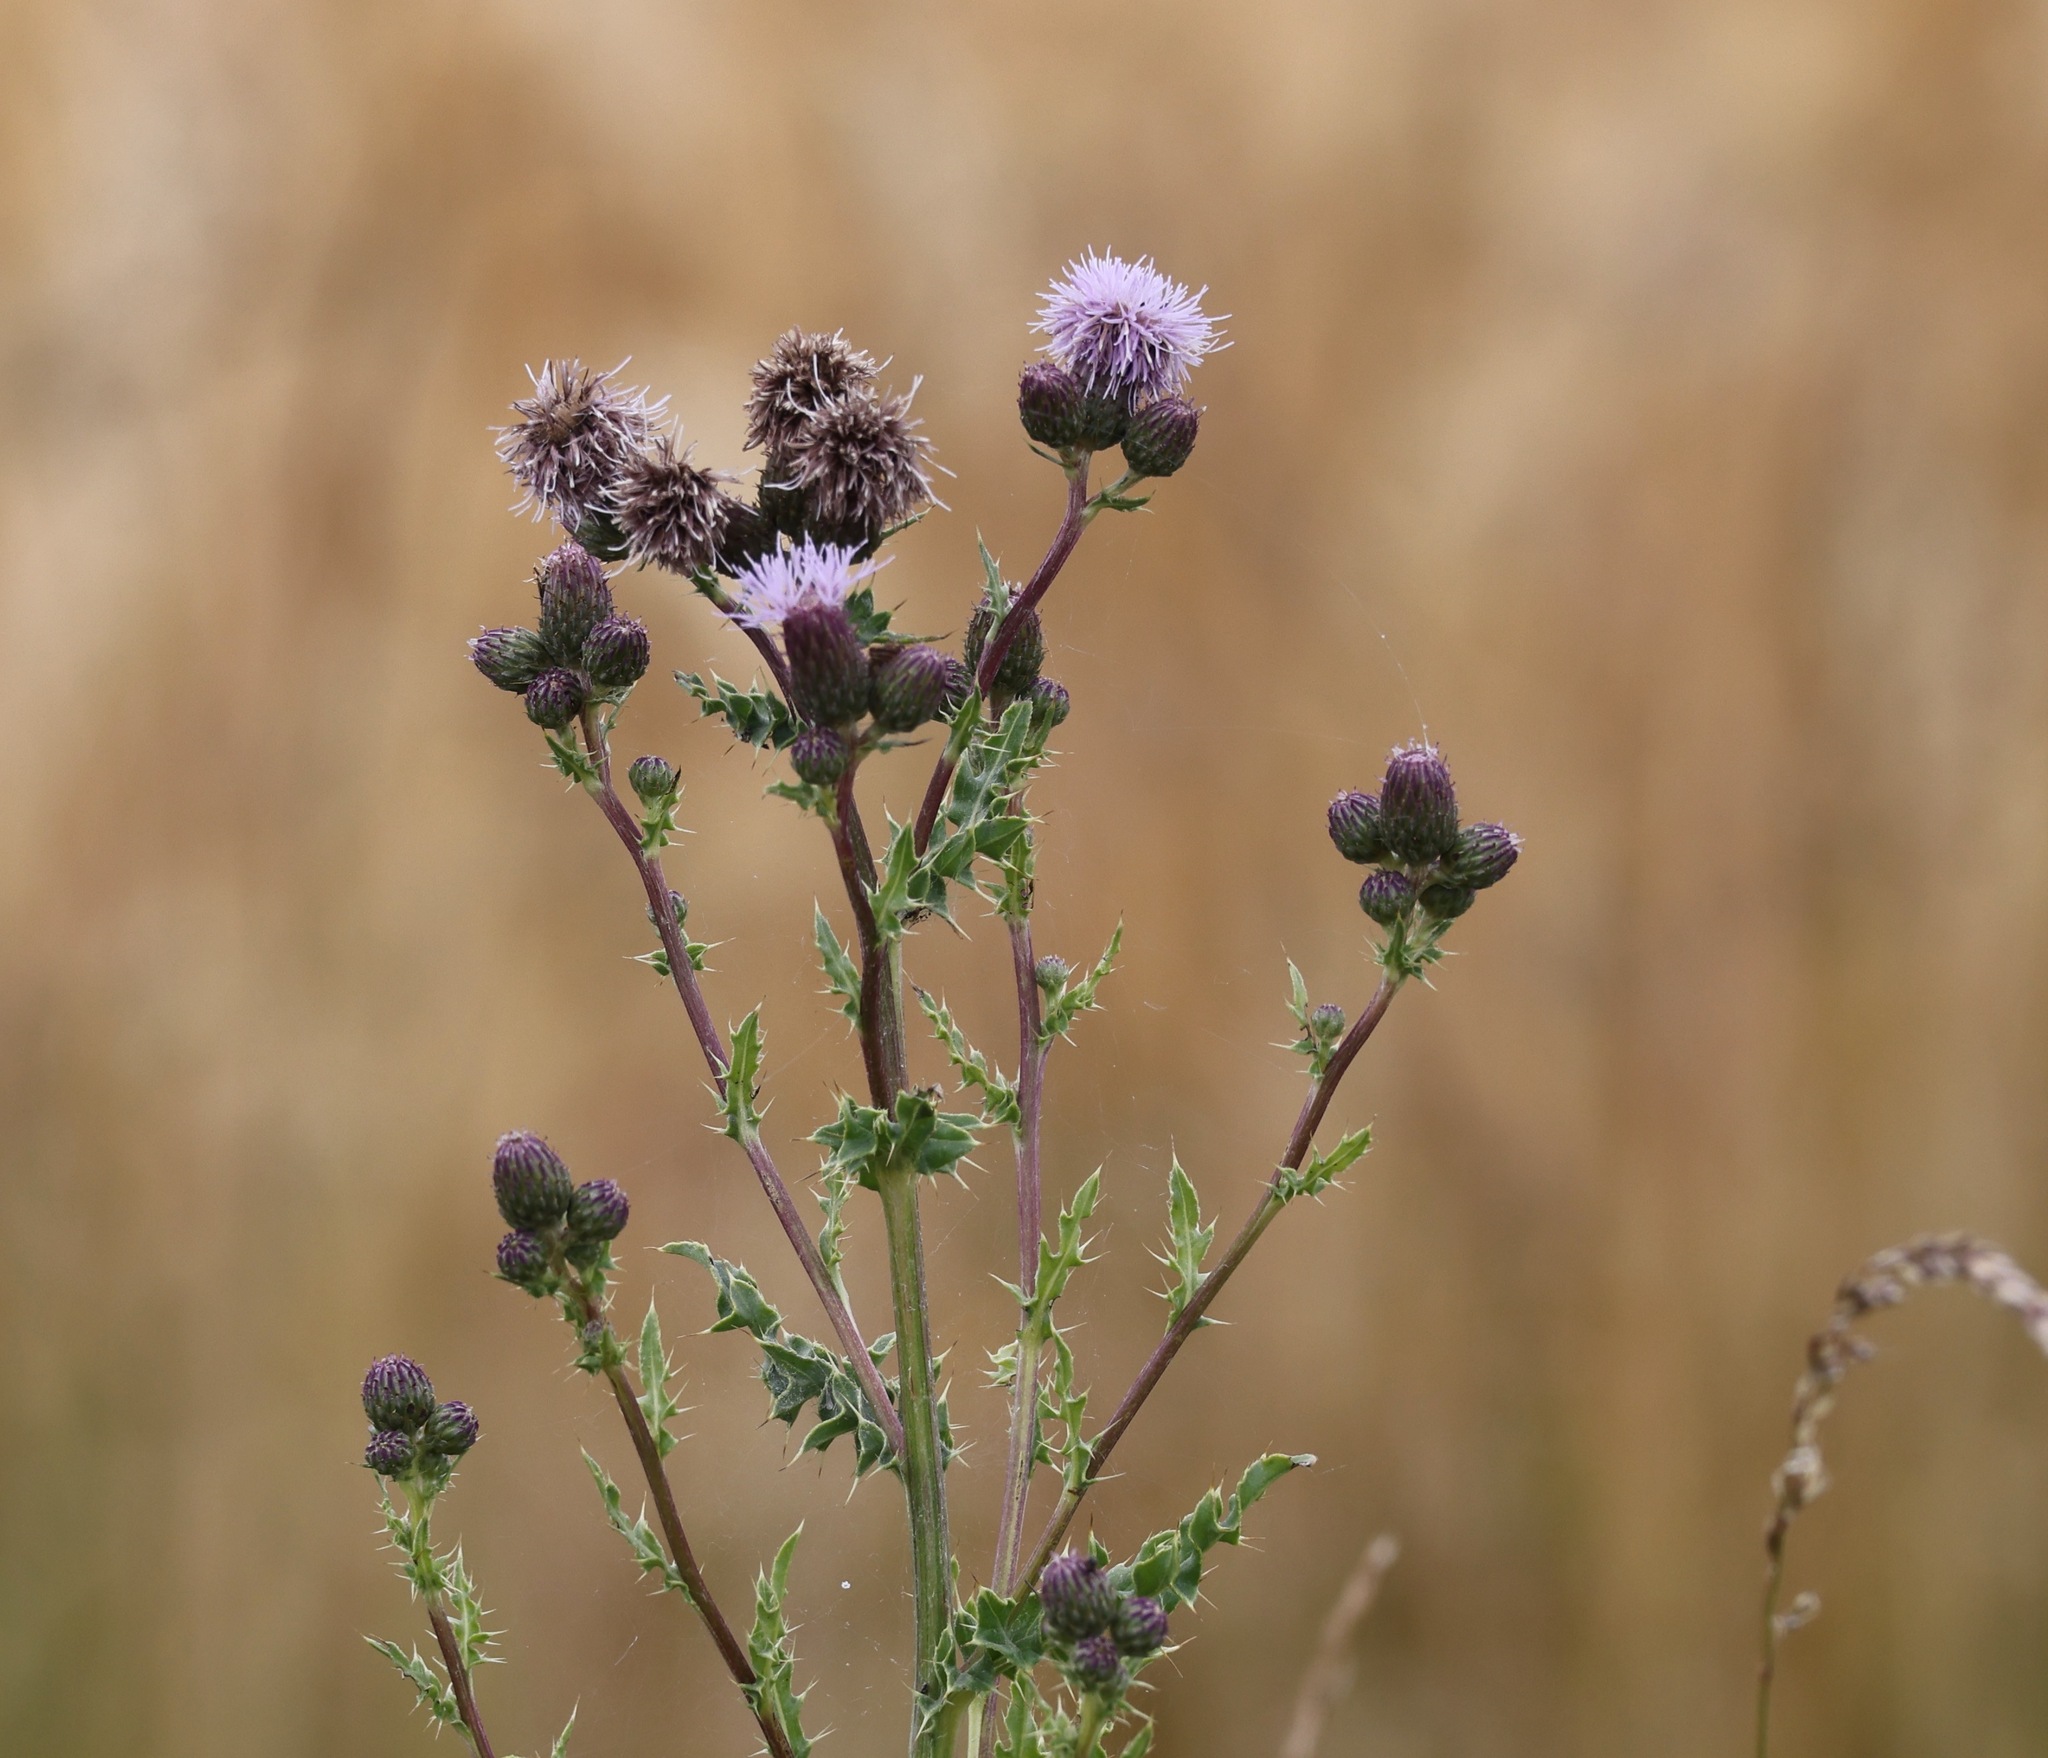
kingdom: Plantae
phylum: Tracheophyta
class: Magnoliopsida
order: Asterales
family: Asteraceae
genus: Cirsium
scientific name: Cirsium arvense
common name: Creeping thistle
